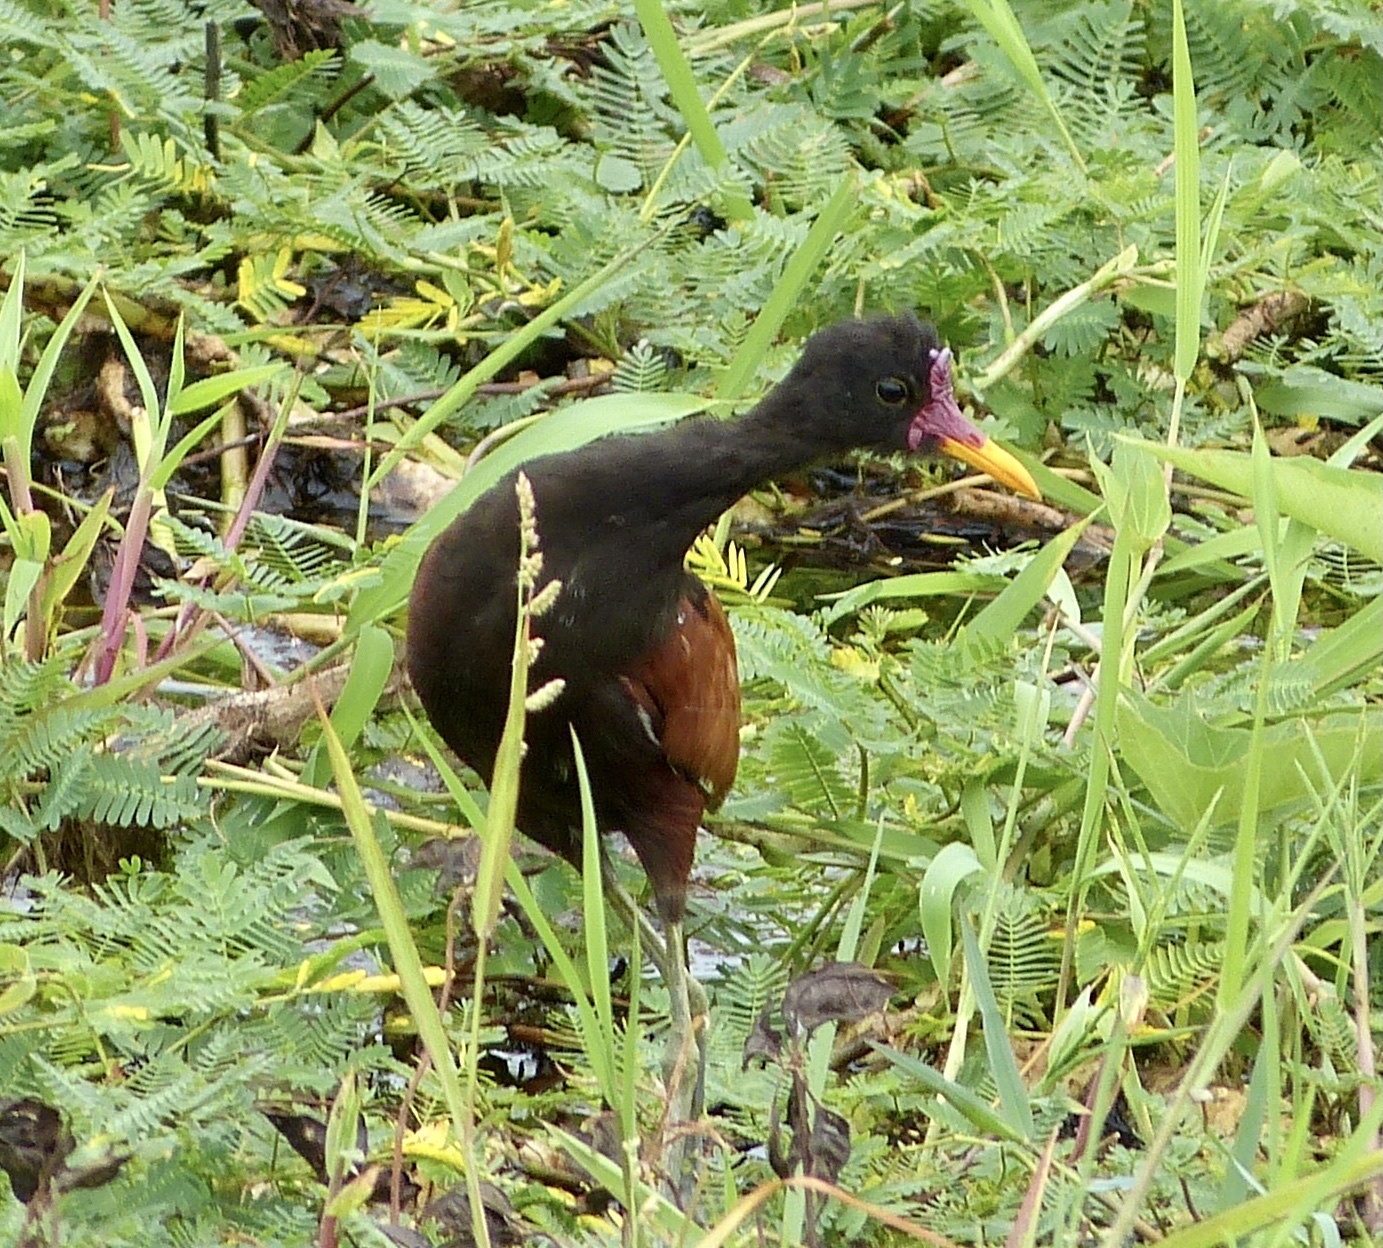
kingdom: Animalia
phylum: Chordata
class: Aves
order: Charadriiformes
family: Jacanidae
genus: Jacana
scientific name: Jacana jacana
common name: Wattled jacana
